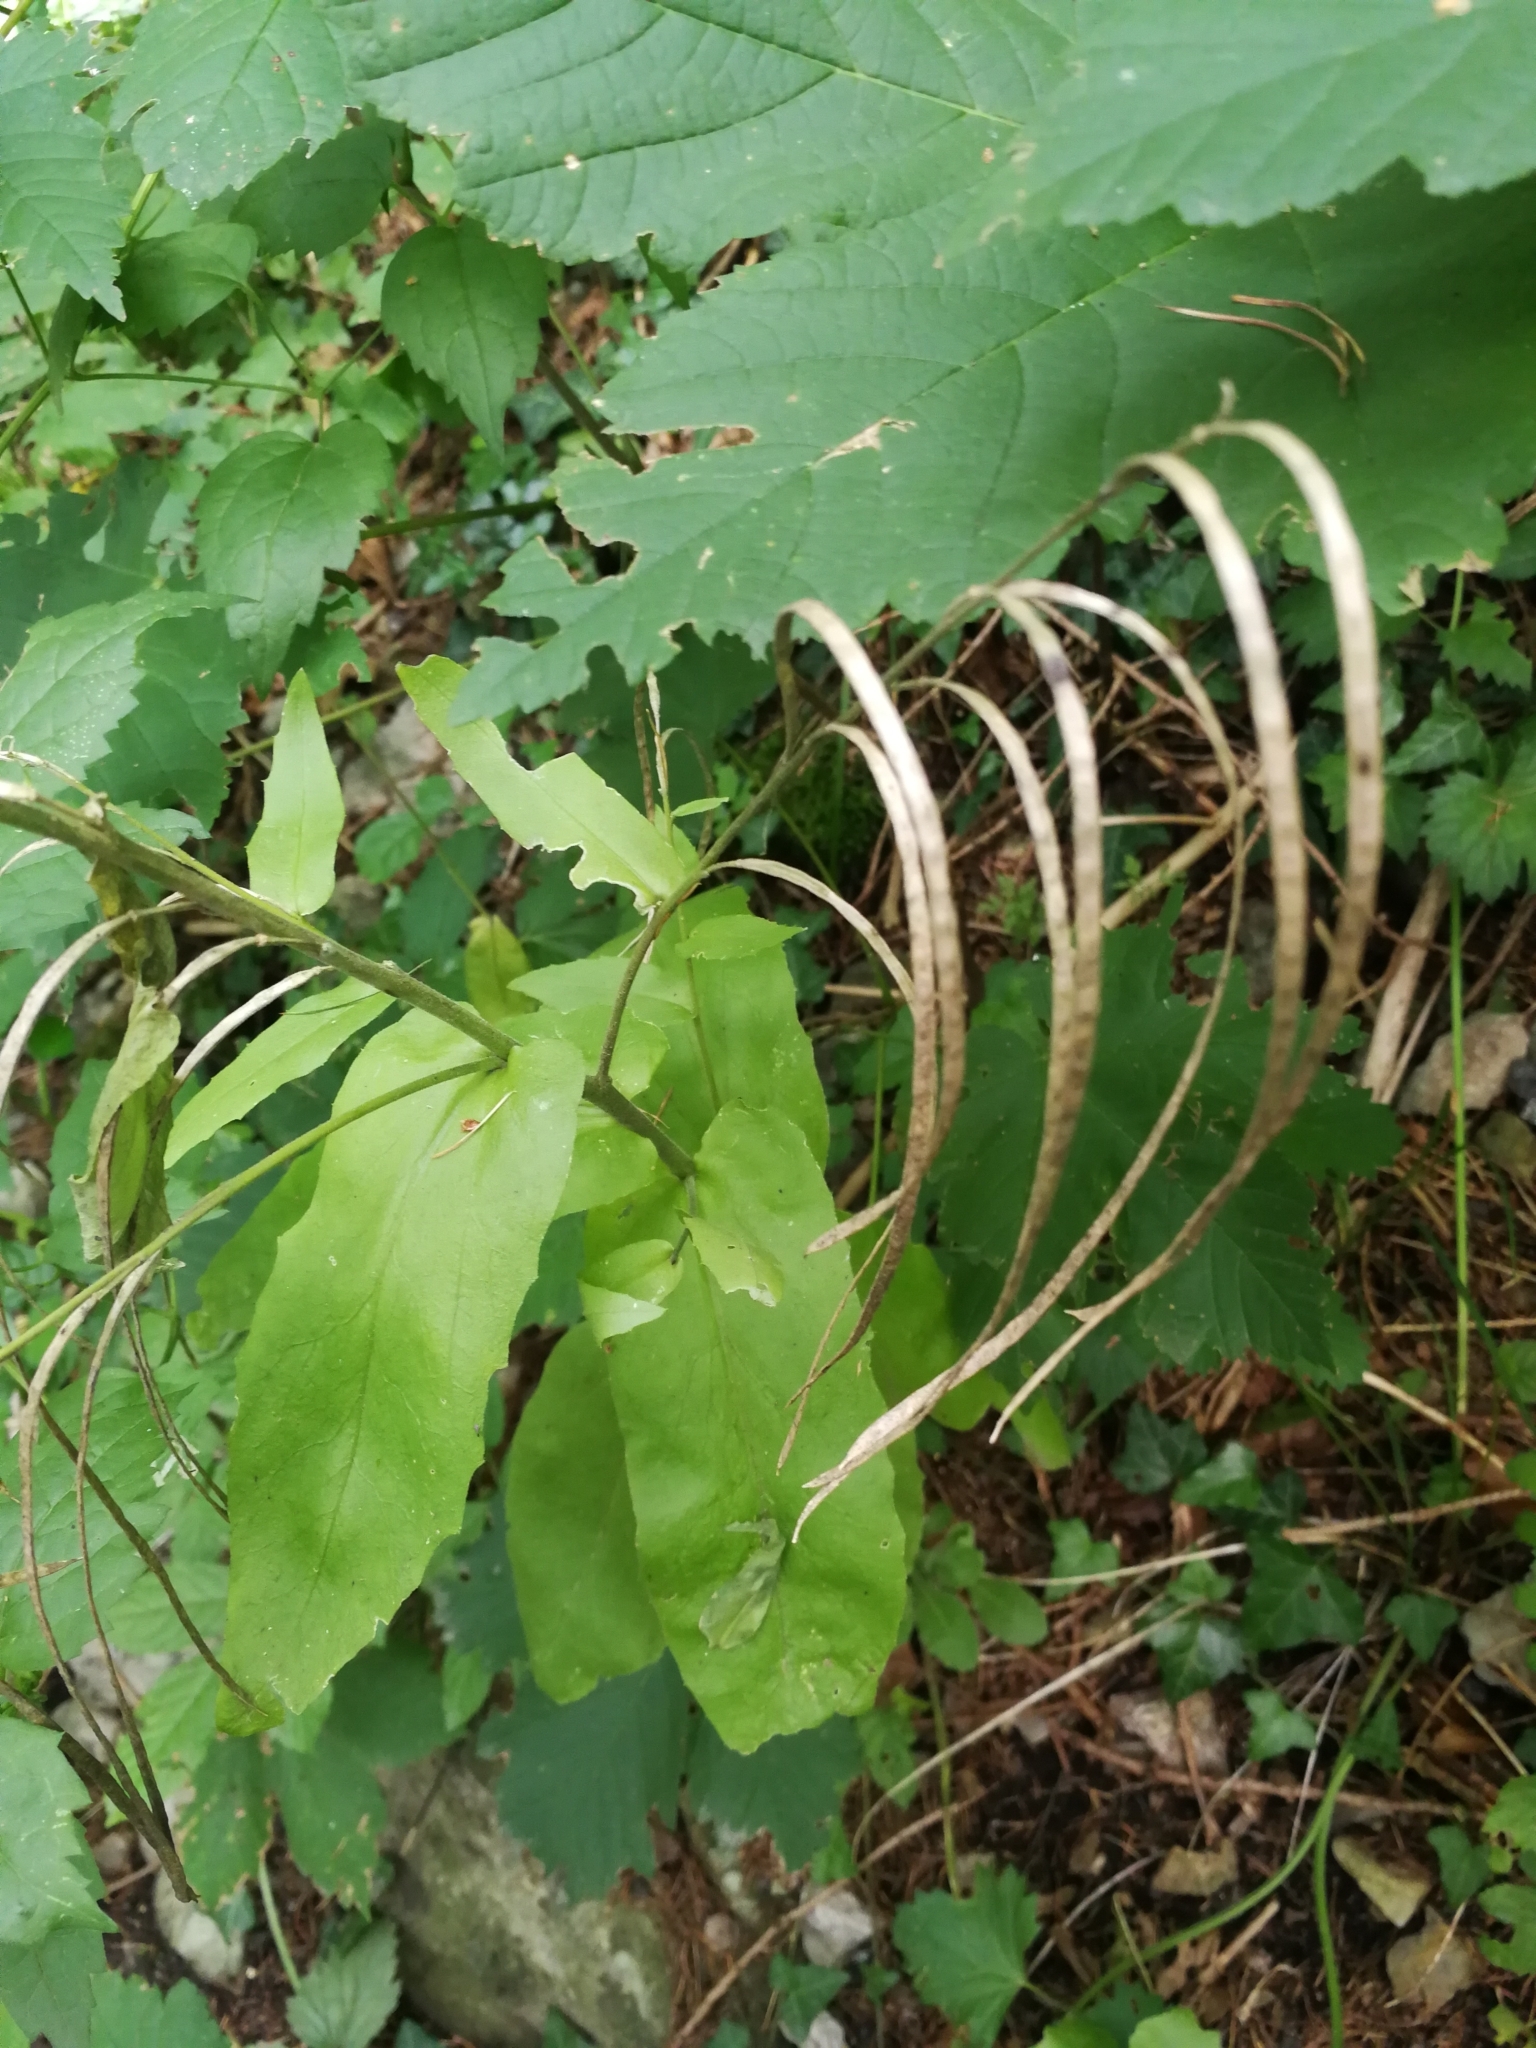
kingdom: Plantae
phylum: Tracheophyta
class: Magnoliopsida
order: Brassicales
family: Brassicaceae
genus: Pseudoturritis
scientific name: Pseudoturritis turrita
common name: Tower cress
